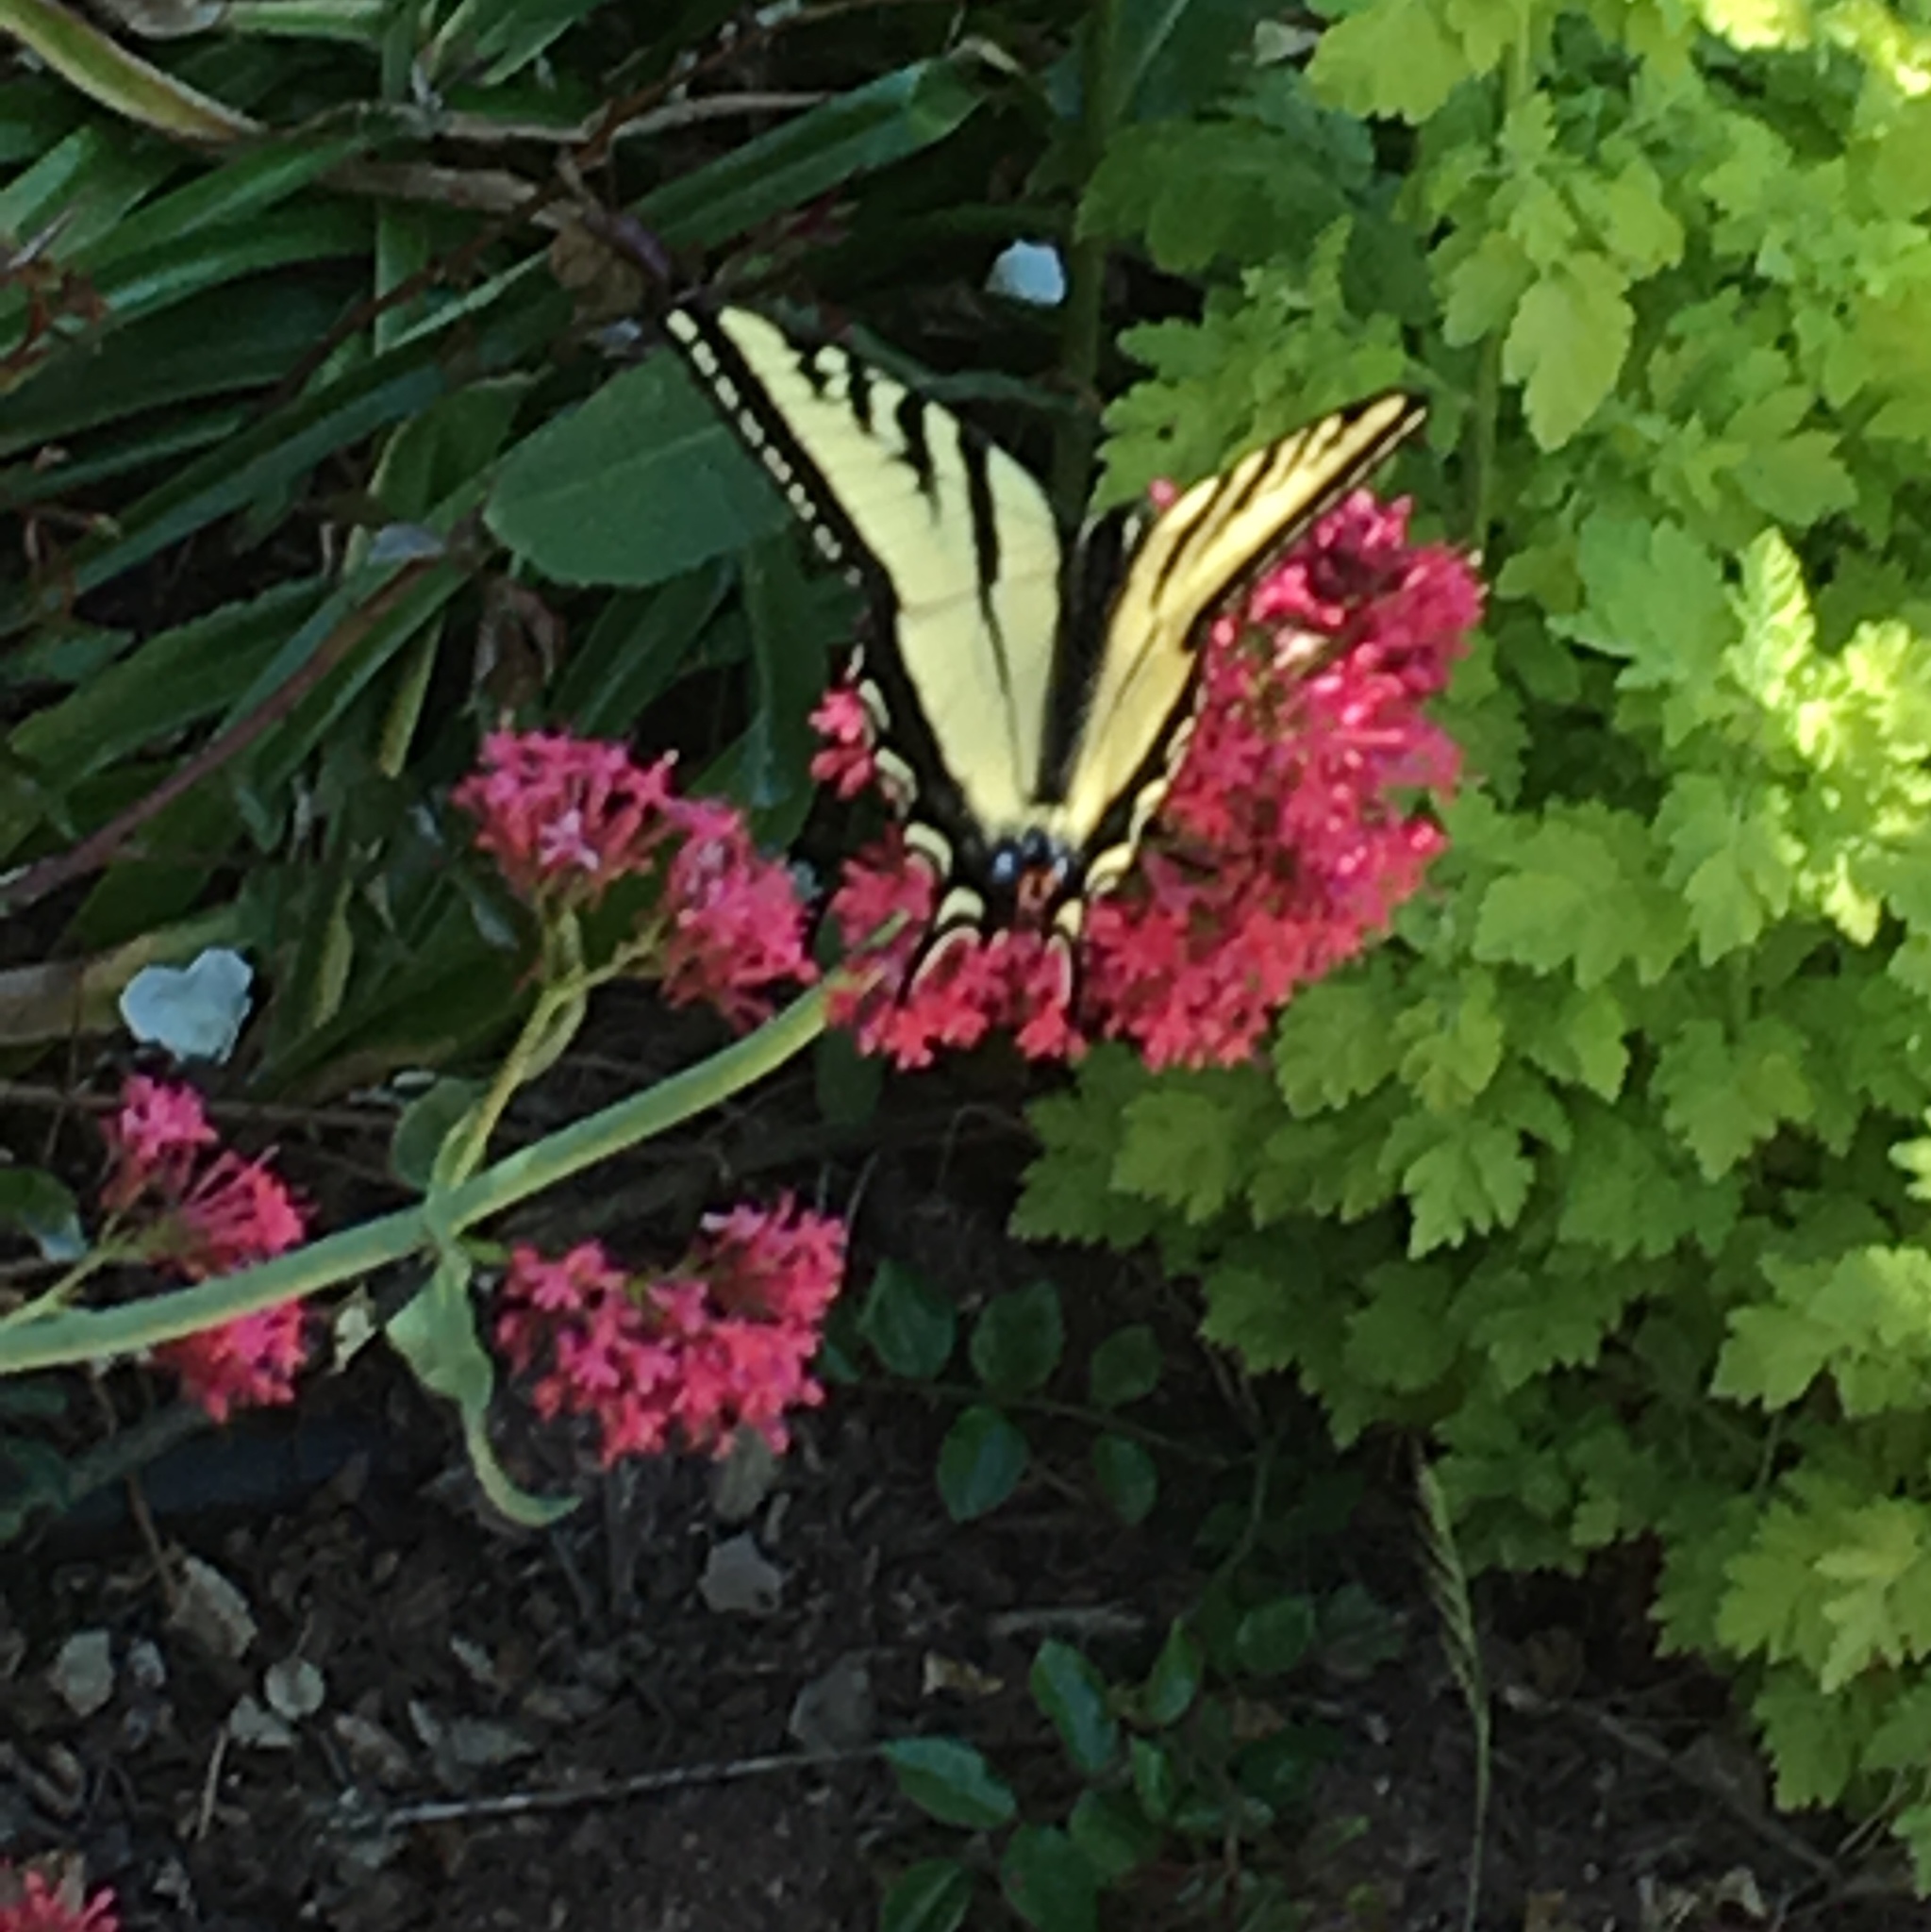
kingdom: Animalia
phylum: Arthropoda
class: Insecta
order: Lepidoptera
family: Papilionidae
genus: Papilio
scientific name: Papilio rutulus
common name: Western tiger swallowtail
